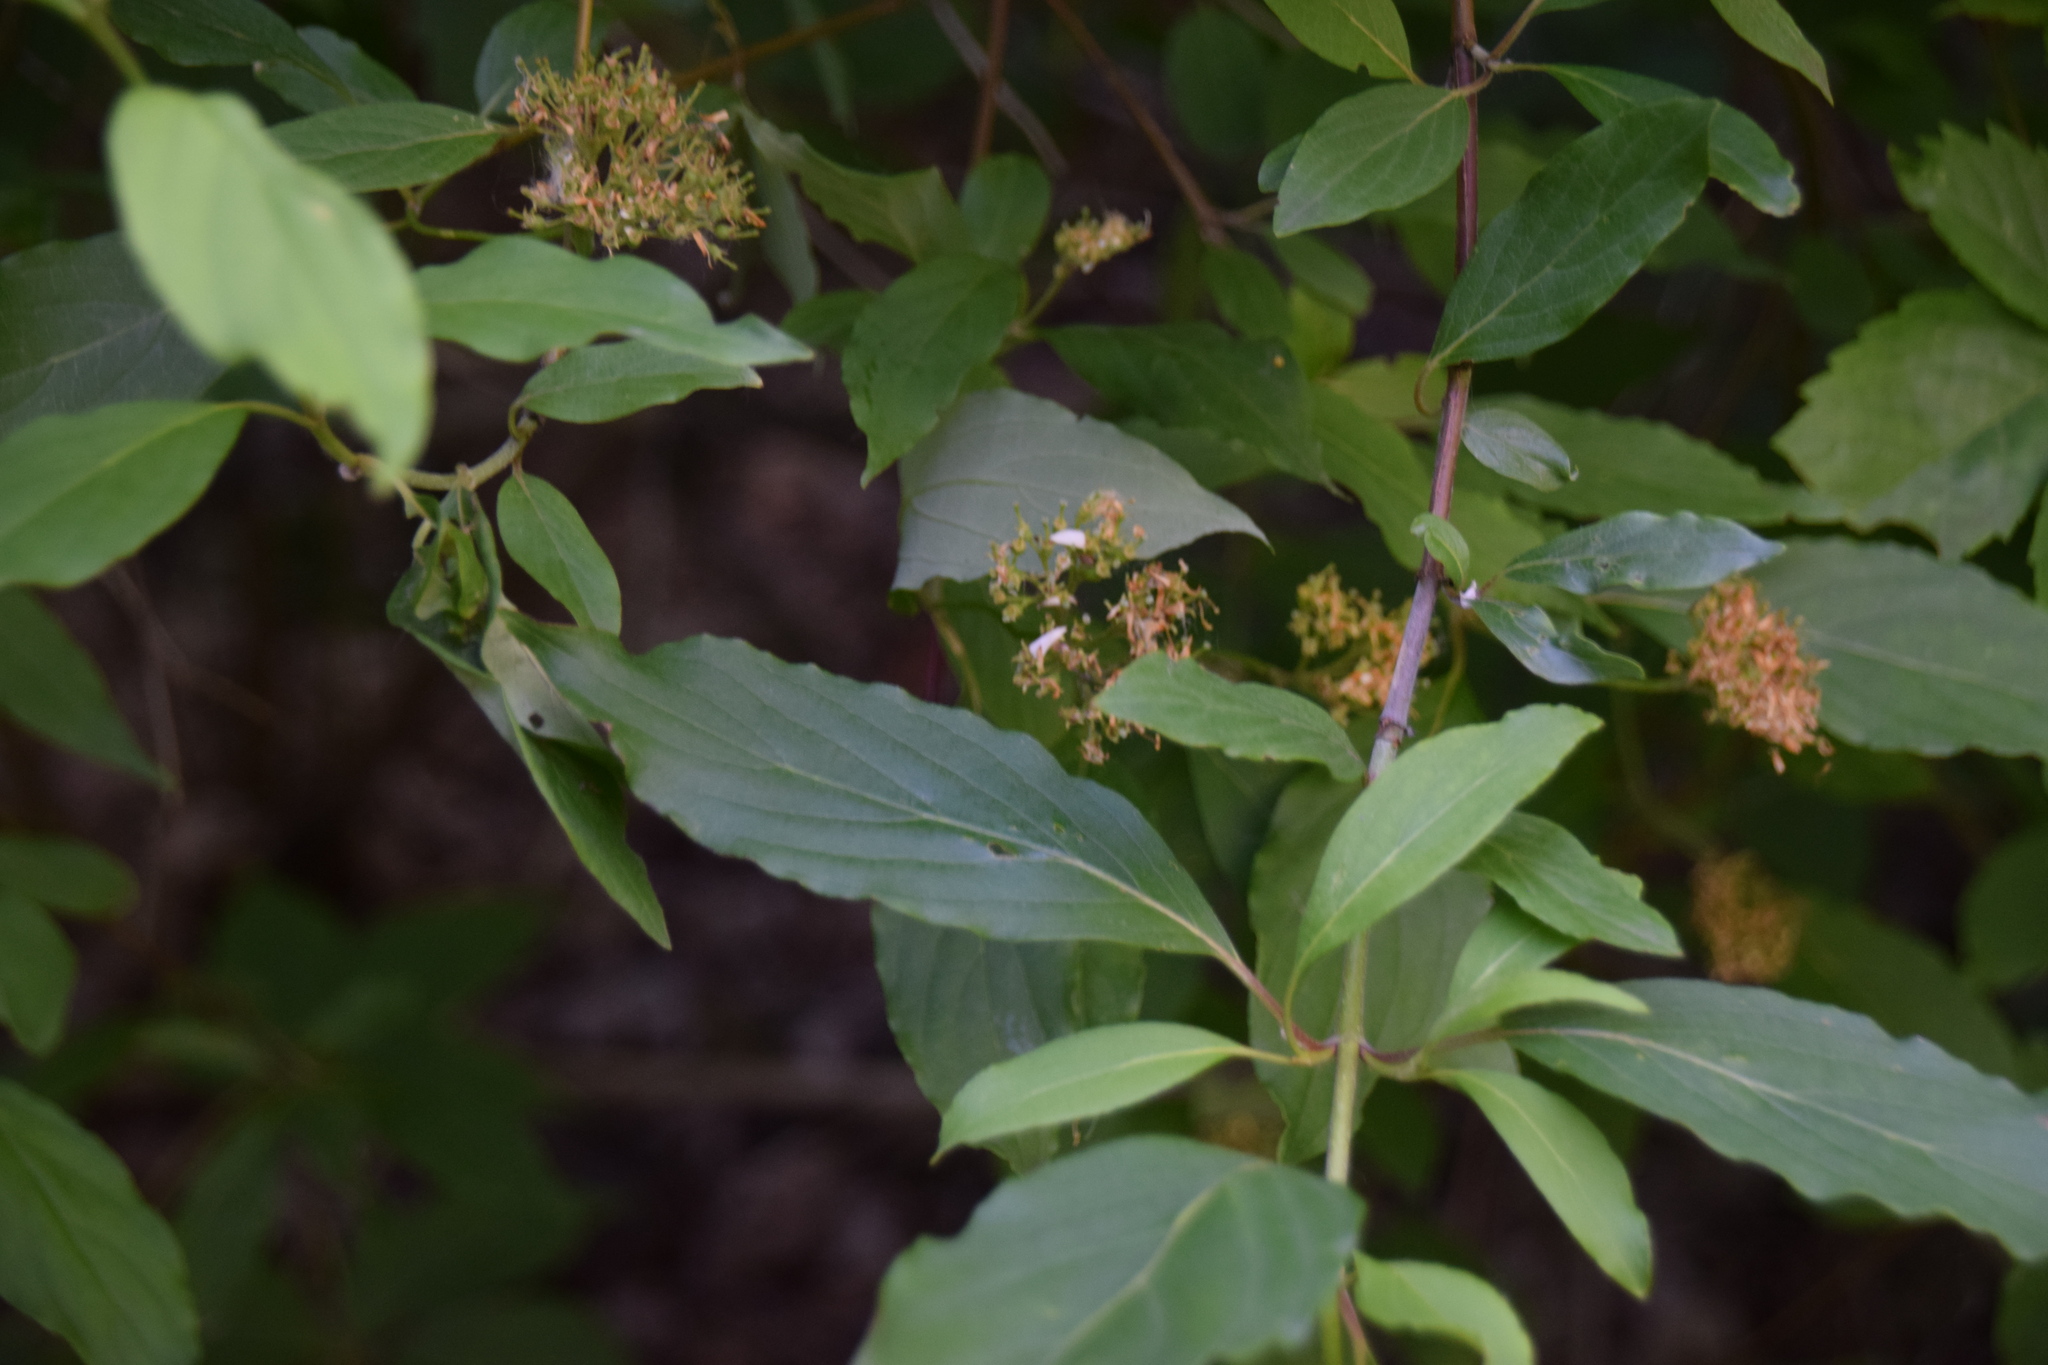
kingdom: Plantae
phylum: Tracheophyta
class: Magnoliopsida
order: Cornales
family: Cornaceae
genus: Cornus
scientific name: Cornus obliqua
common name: Pale dogwood
